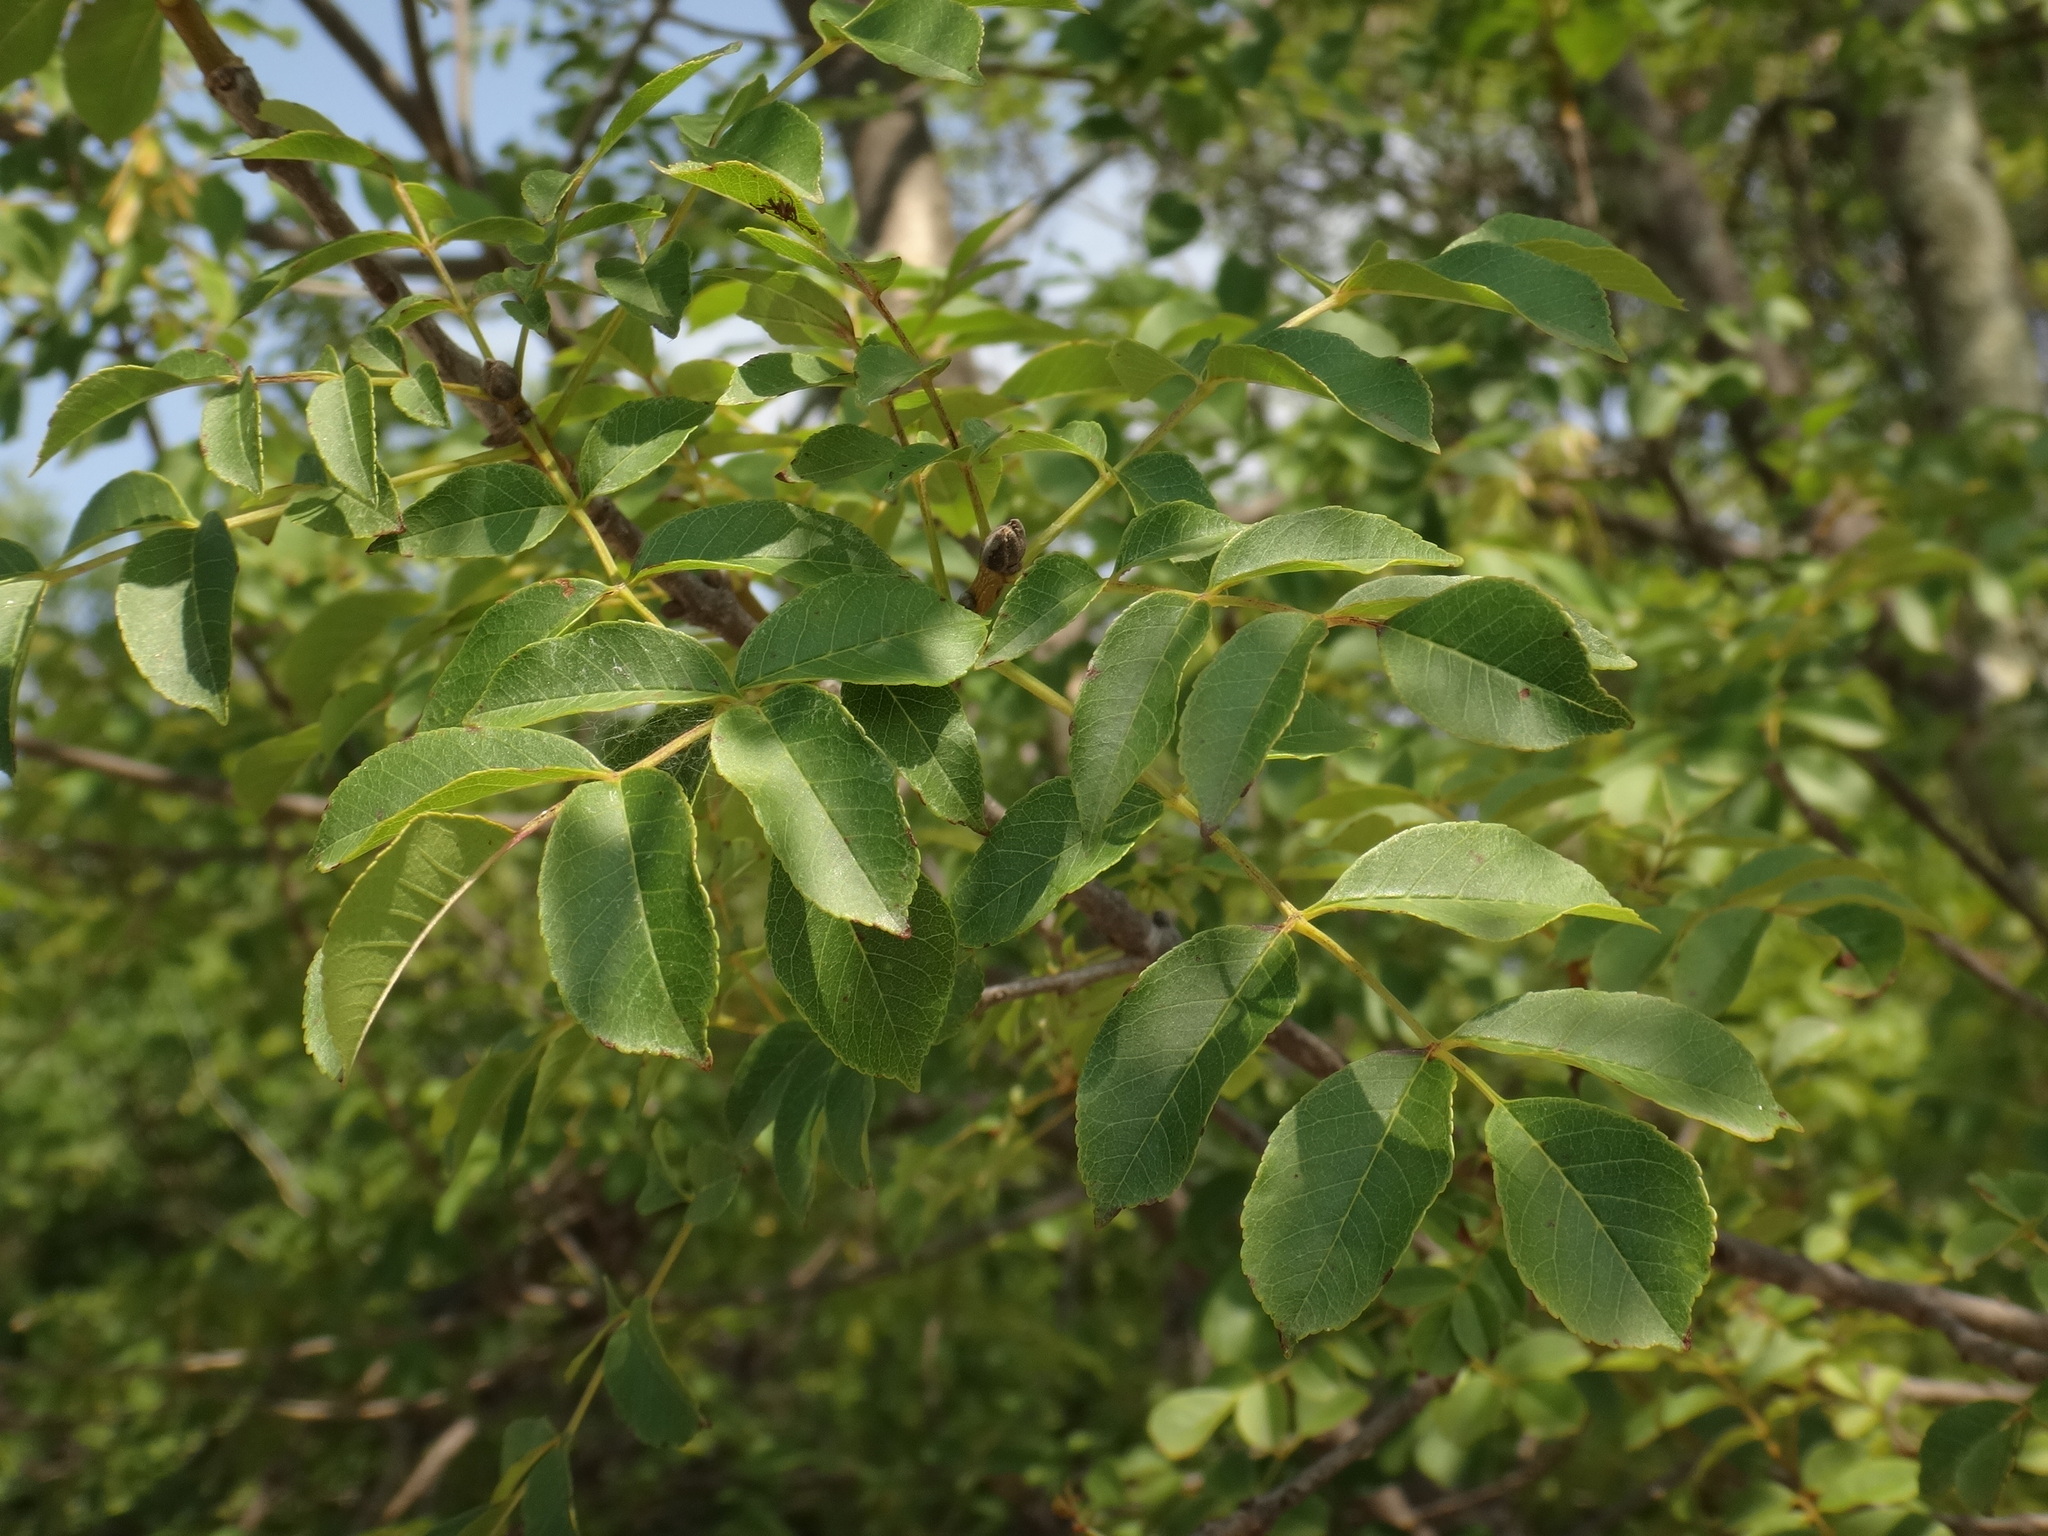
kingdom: Plantae
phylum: Tracheophyta
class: Magnoliopsida
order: Lamiales
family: Oleaceae
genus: Fraxinus
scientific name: Fraxinus ornus
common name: Manna ash
